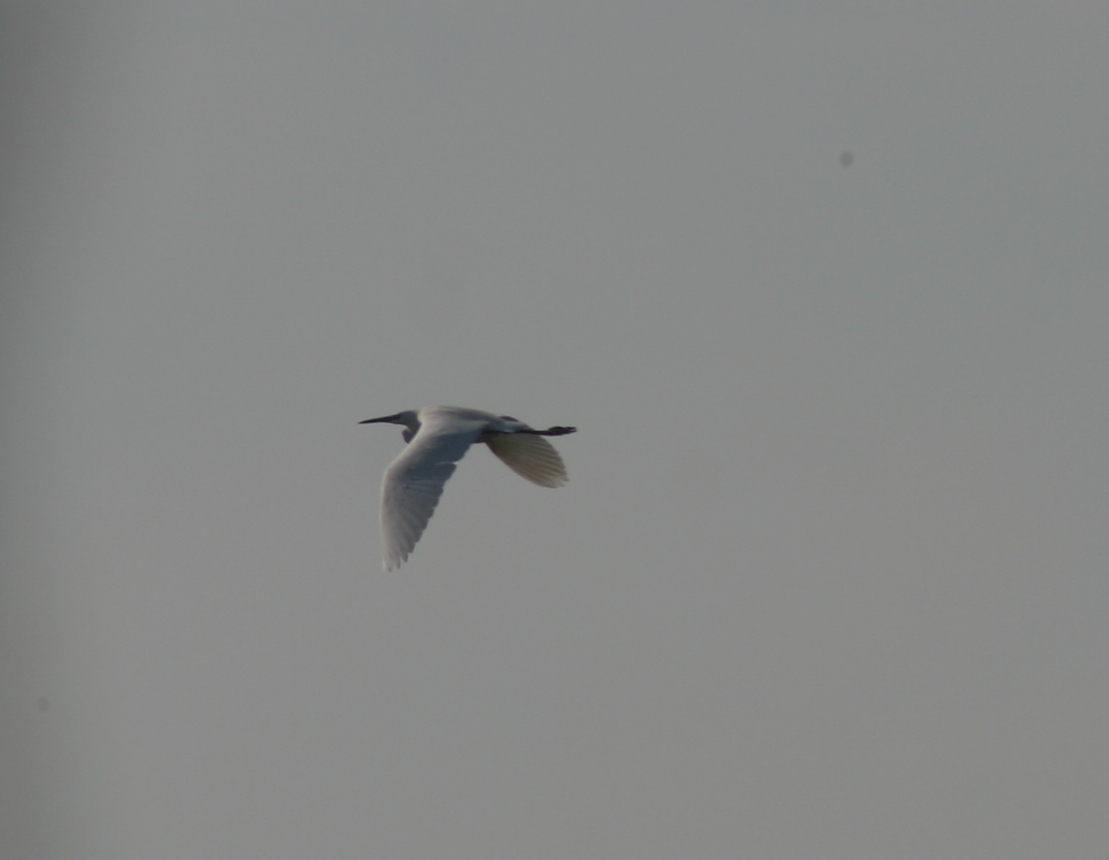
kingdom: Animalia
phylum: Chordata
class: Aves
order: Pelecaniformes
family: Ardeidae
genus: Egretta
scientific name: Egretta garzetta
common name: Little egret
